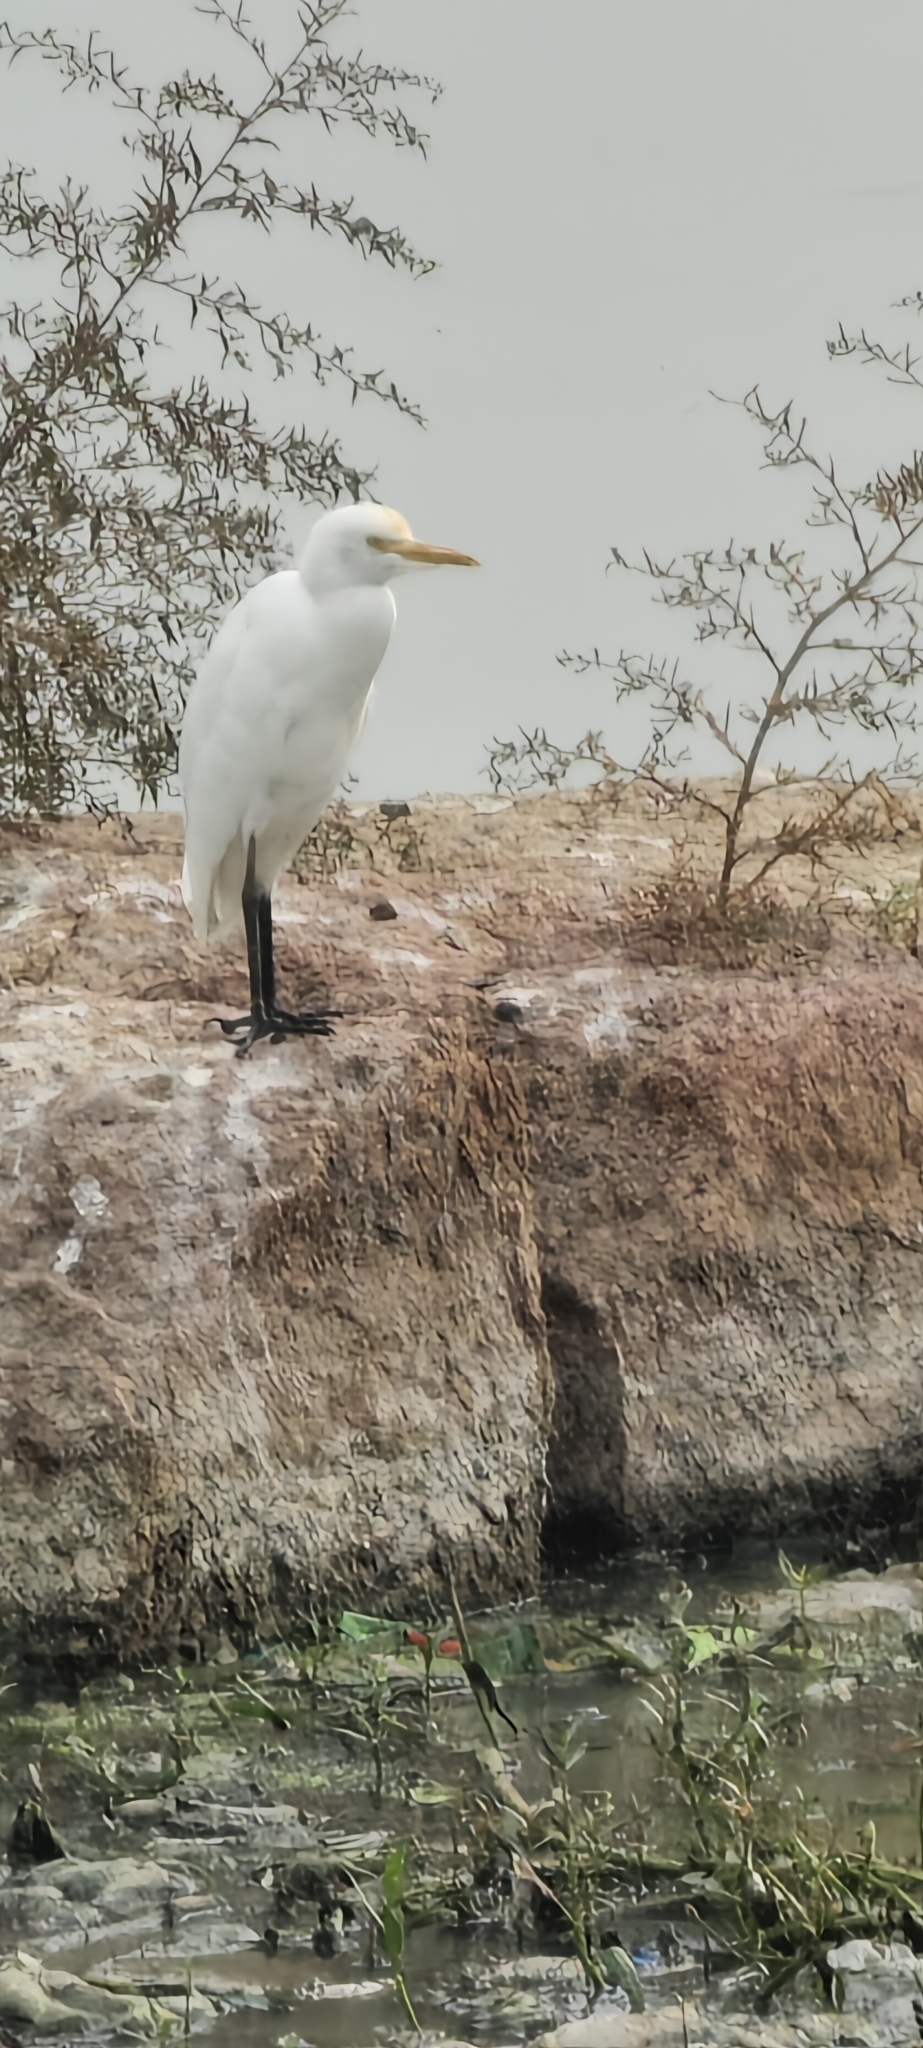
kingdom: Animalia
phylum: Chordata
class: Aves
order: Pelecaniformes
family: Ardeidae
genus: Bubulcus
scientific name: Bubulcus coromandus
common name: Eastern cattle egret
